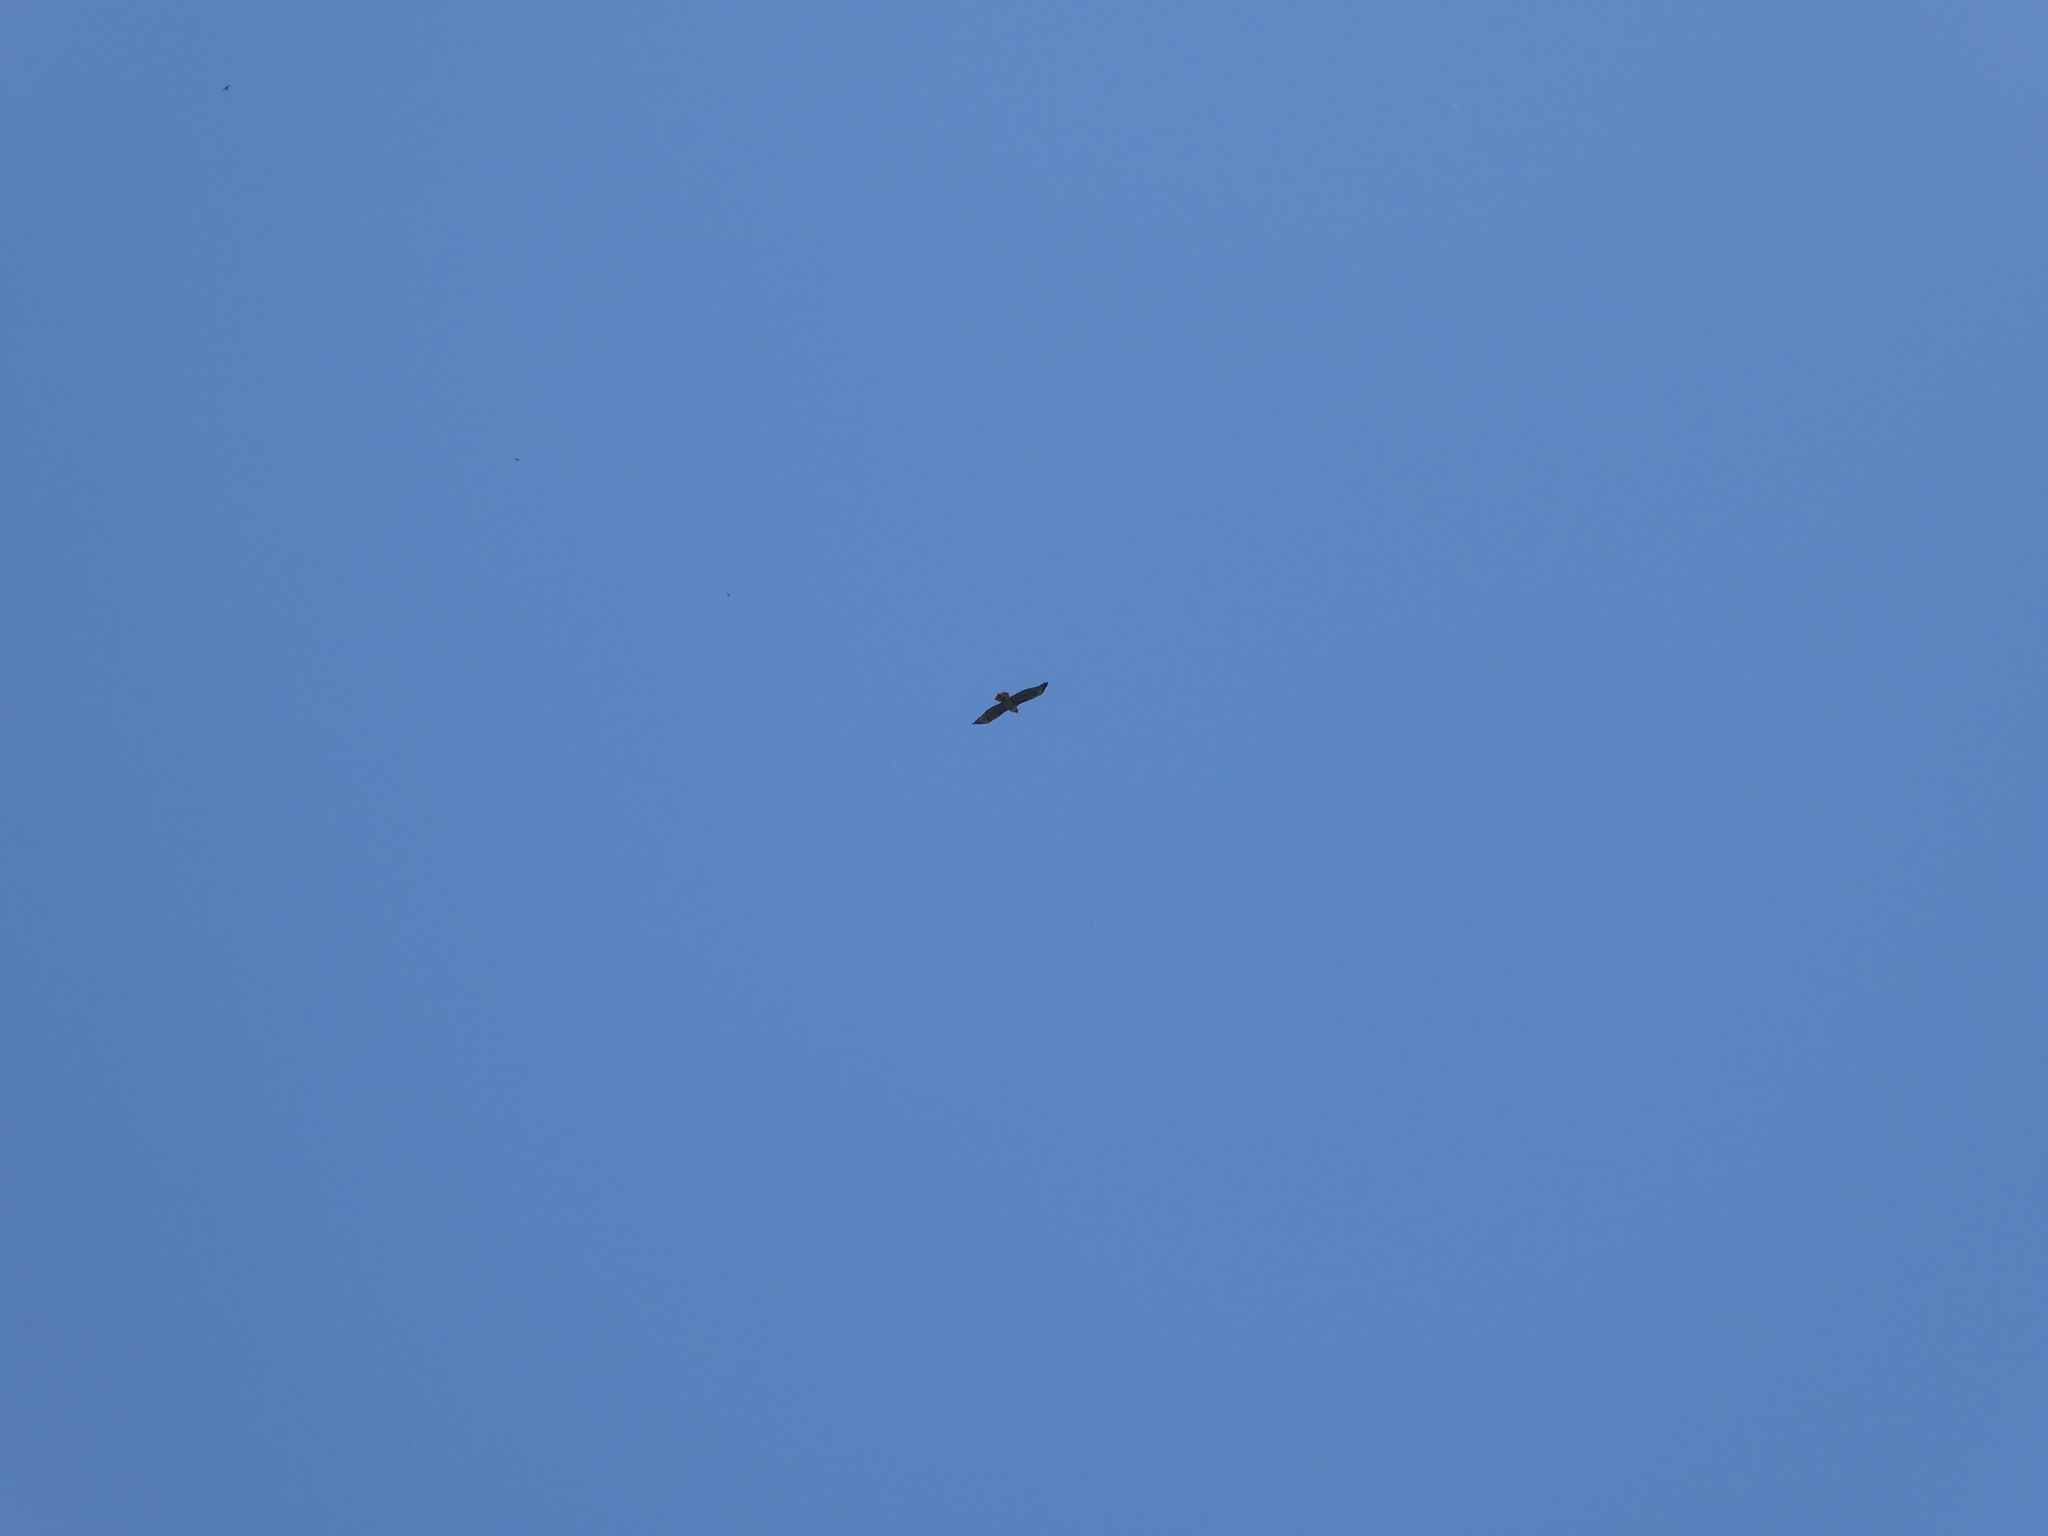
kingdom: Animalia
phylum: Chordata
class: Aves
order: Accipitriformes
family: Accipitridae
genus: Buteo
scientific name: Buteo jamaicensis
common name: Red-tailed hawk
